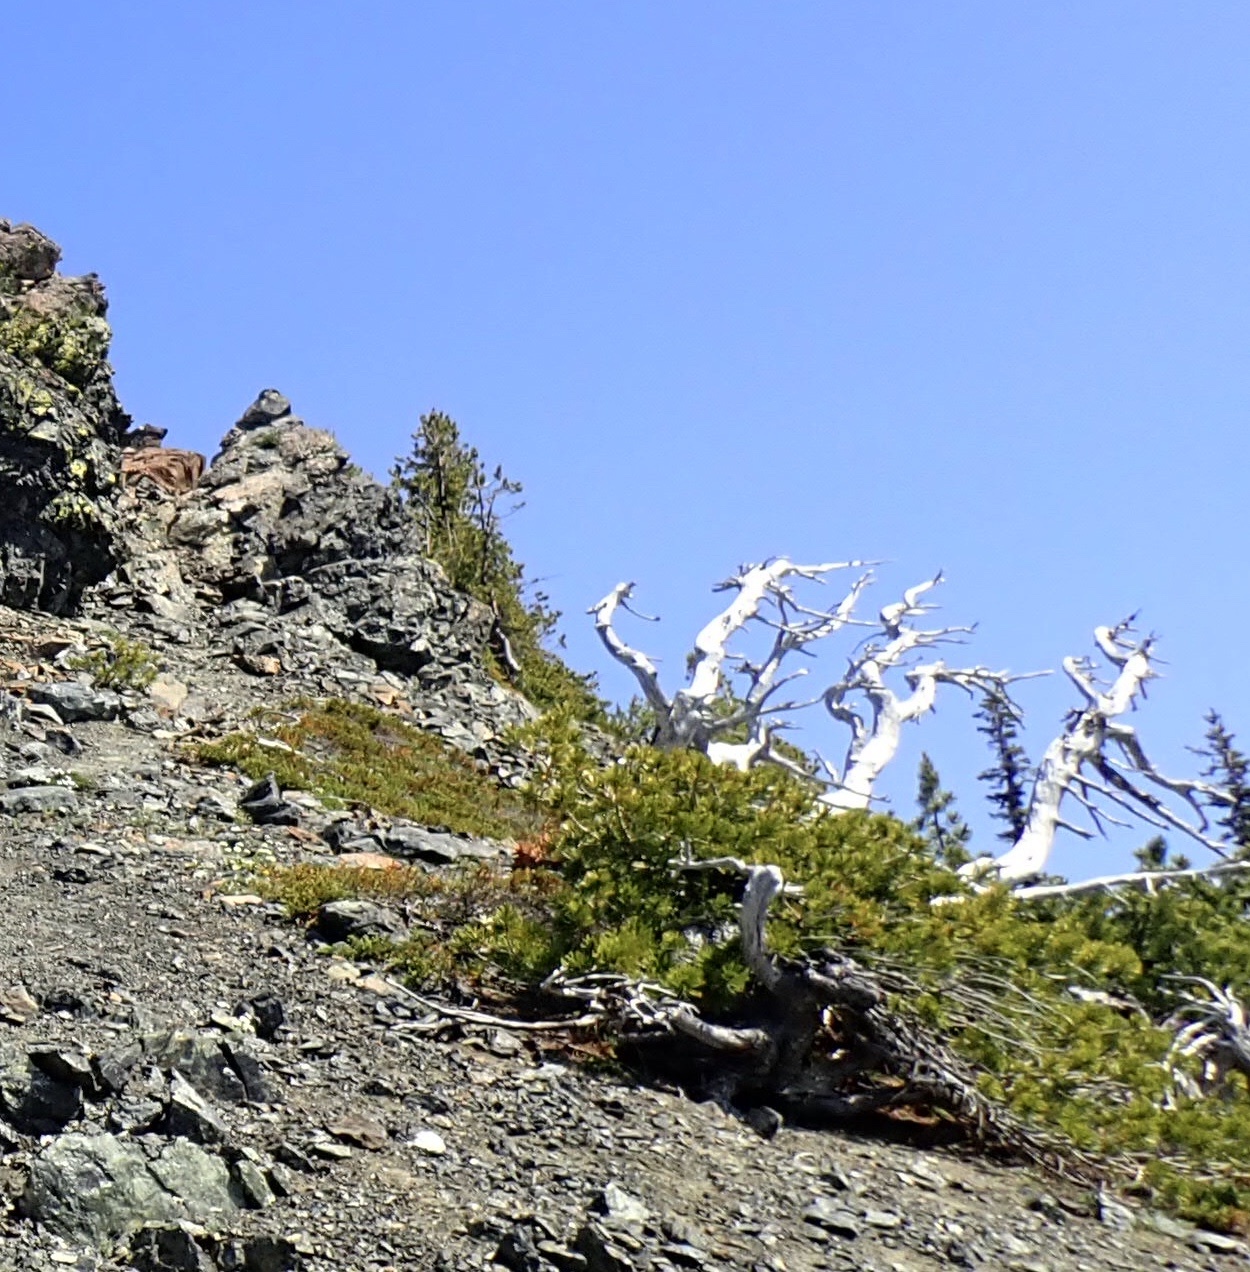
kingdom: Plantae
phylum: Tracheophyta
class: Pinopsida
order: Pinales
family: Pinaceae
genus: Pinus
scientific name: Pinus albicaulis
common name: Whitebark pine
